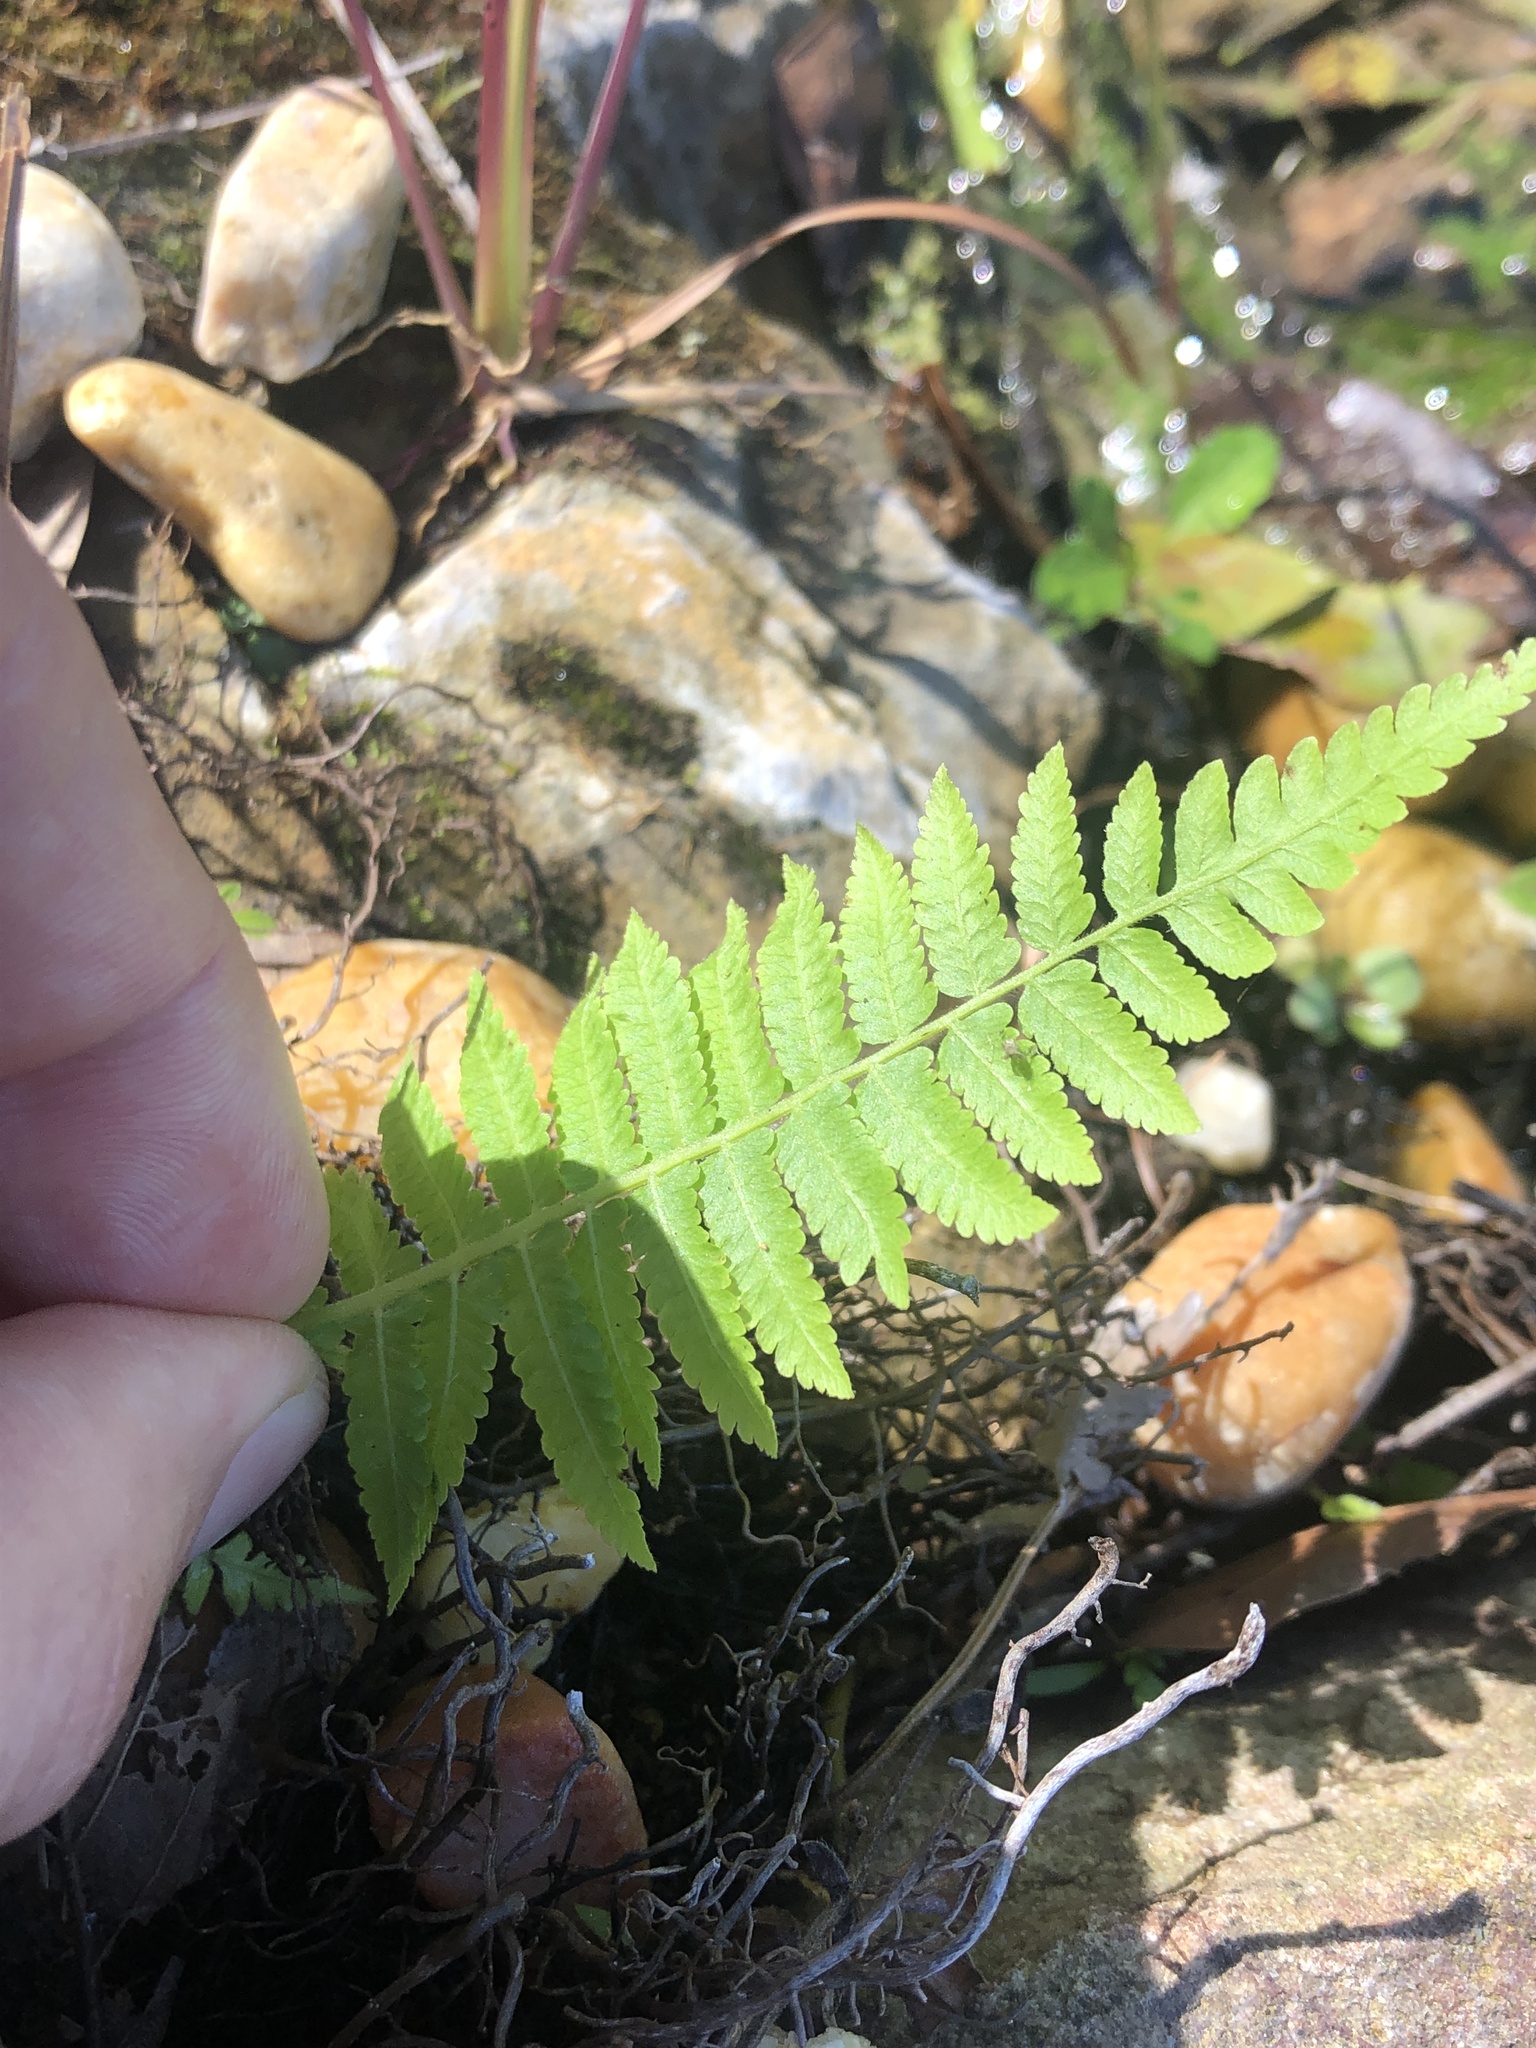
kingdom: Plantae
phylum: Tracheophyta
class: Polypodiopsida
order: Polypodiales
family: Thelypteridaceae
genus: Christella
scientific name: Christella dentata
